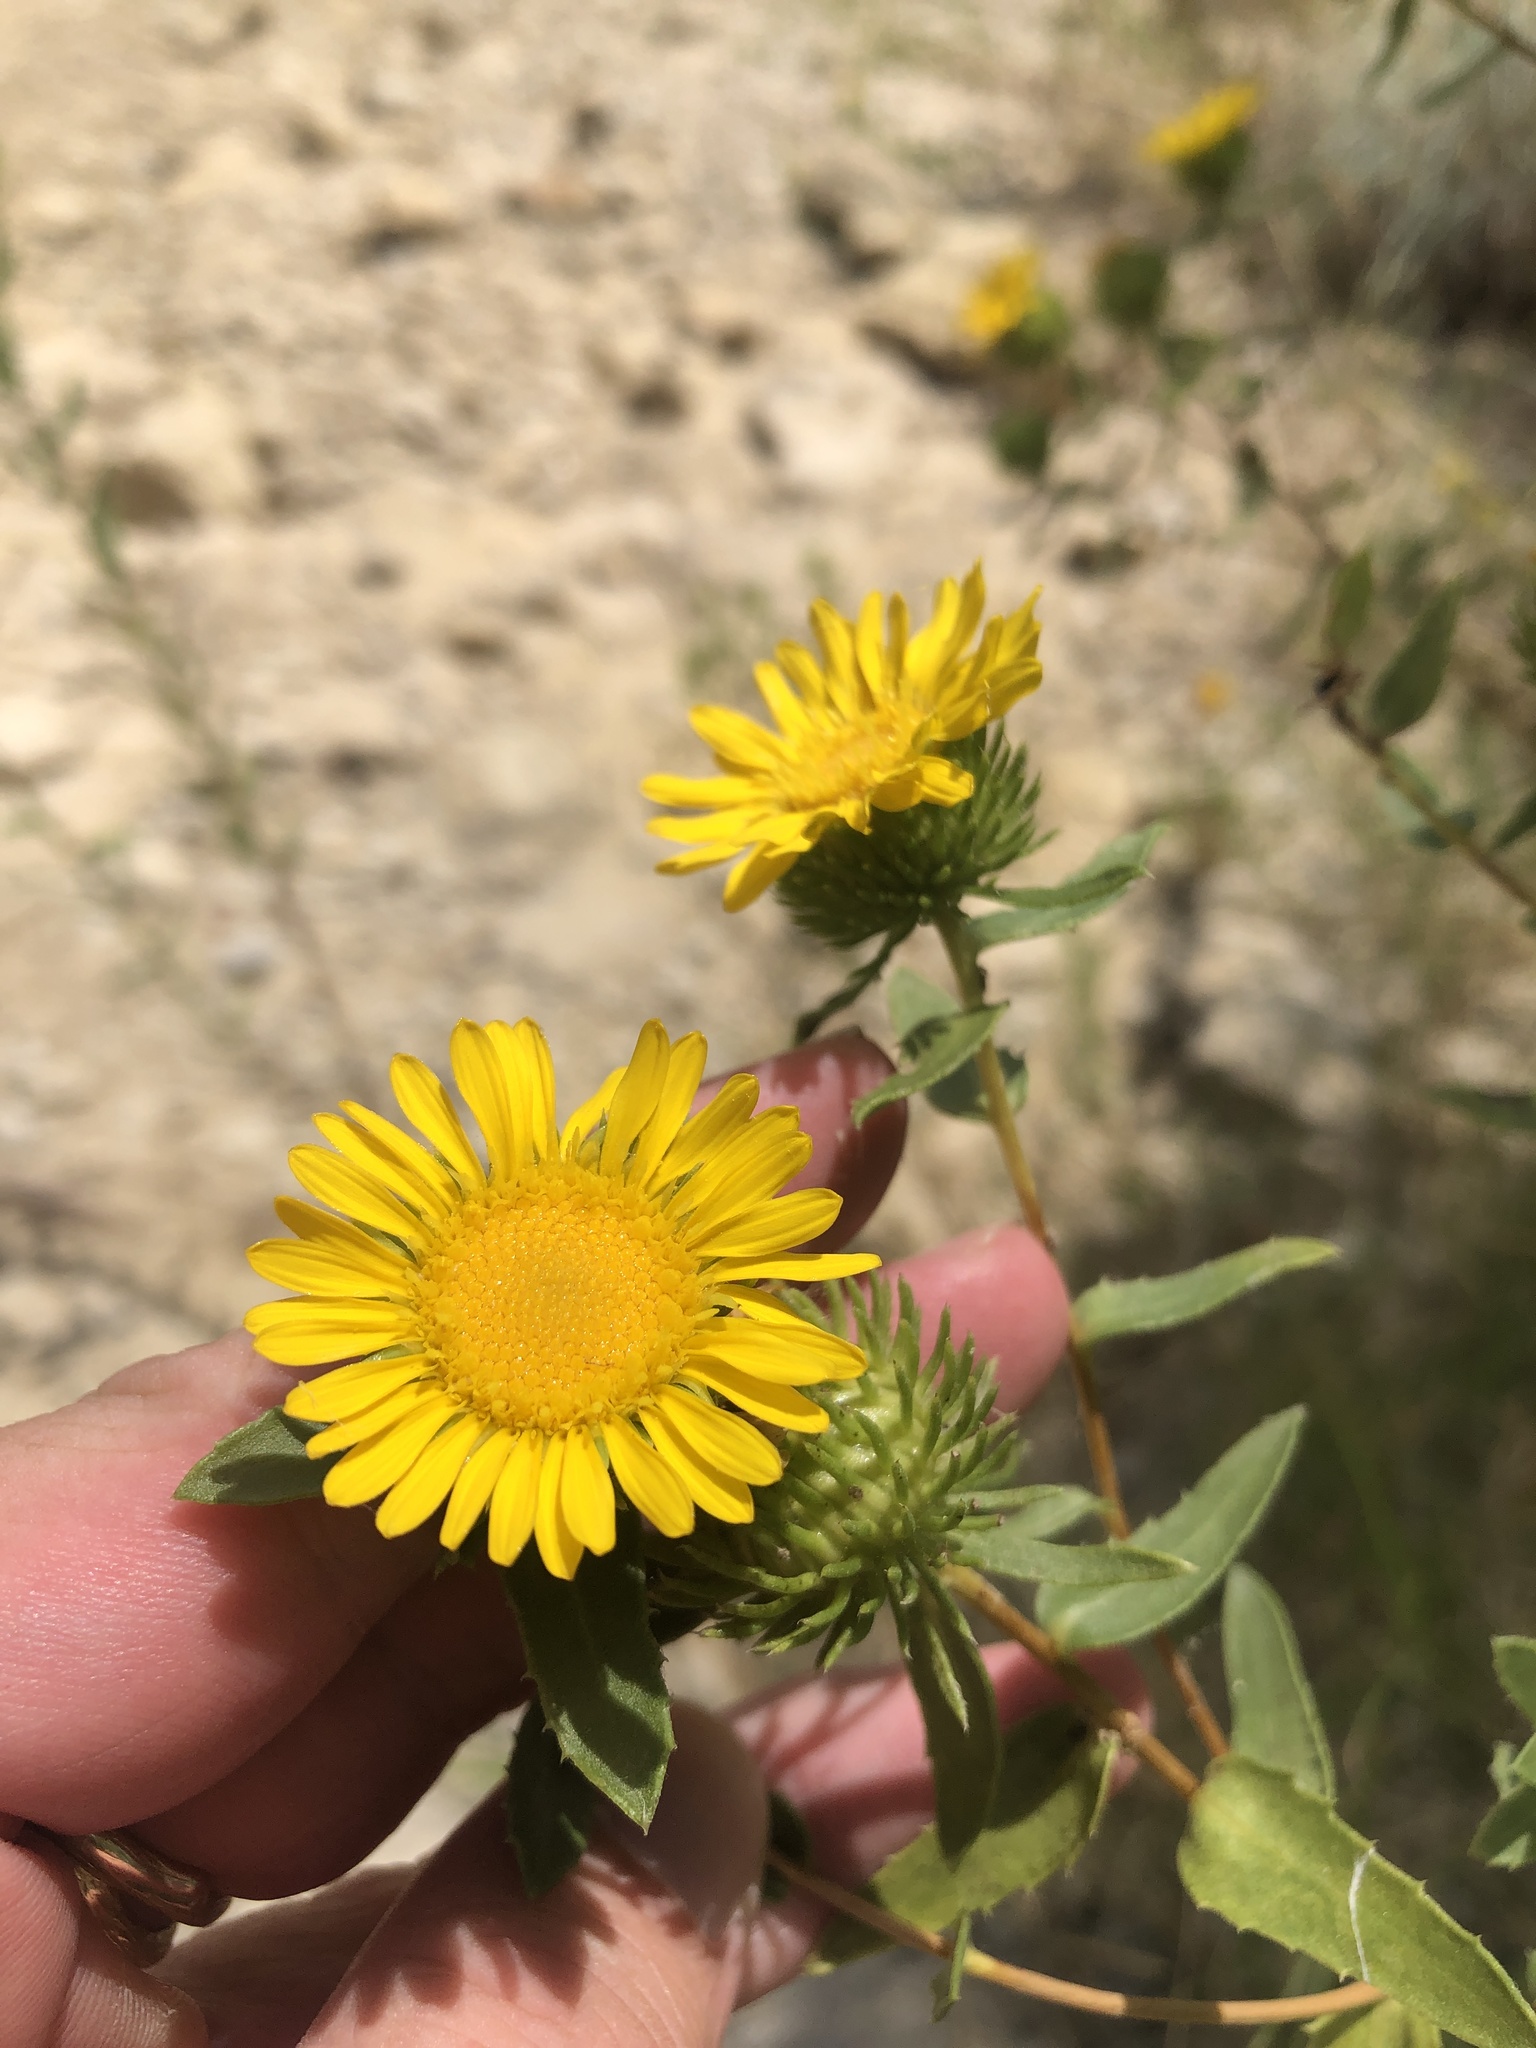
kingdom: Plantae
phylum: Tracheophyta
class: Magnoliopsida
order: Asterales
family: Asteraceae
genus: Grindelia
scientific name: Grindelia lanceolata
